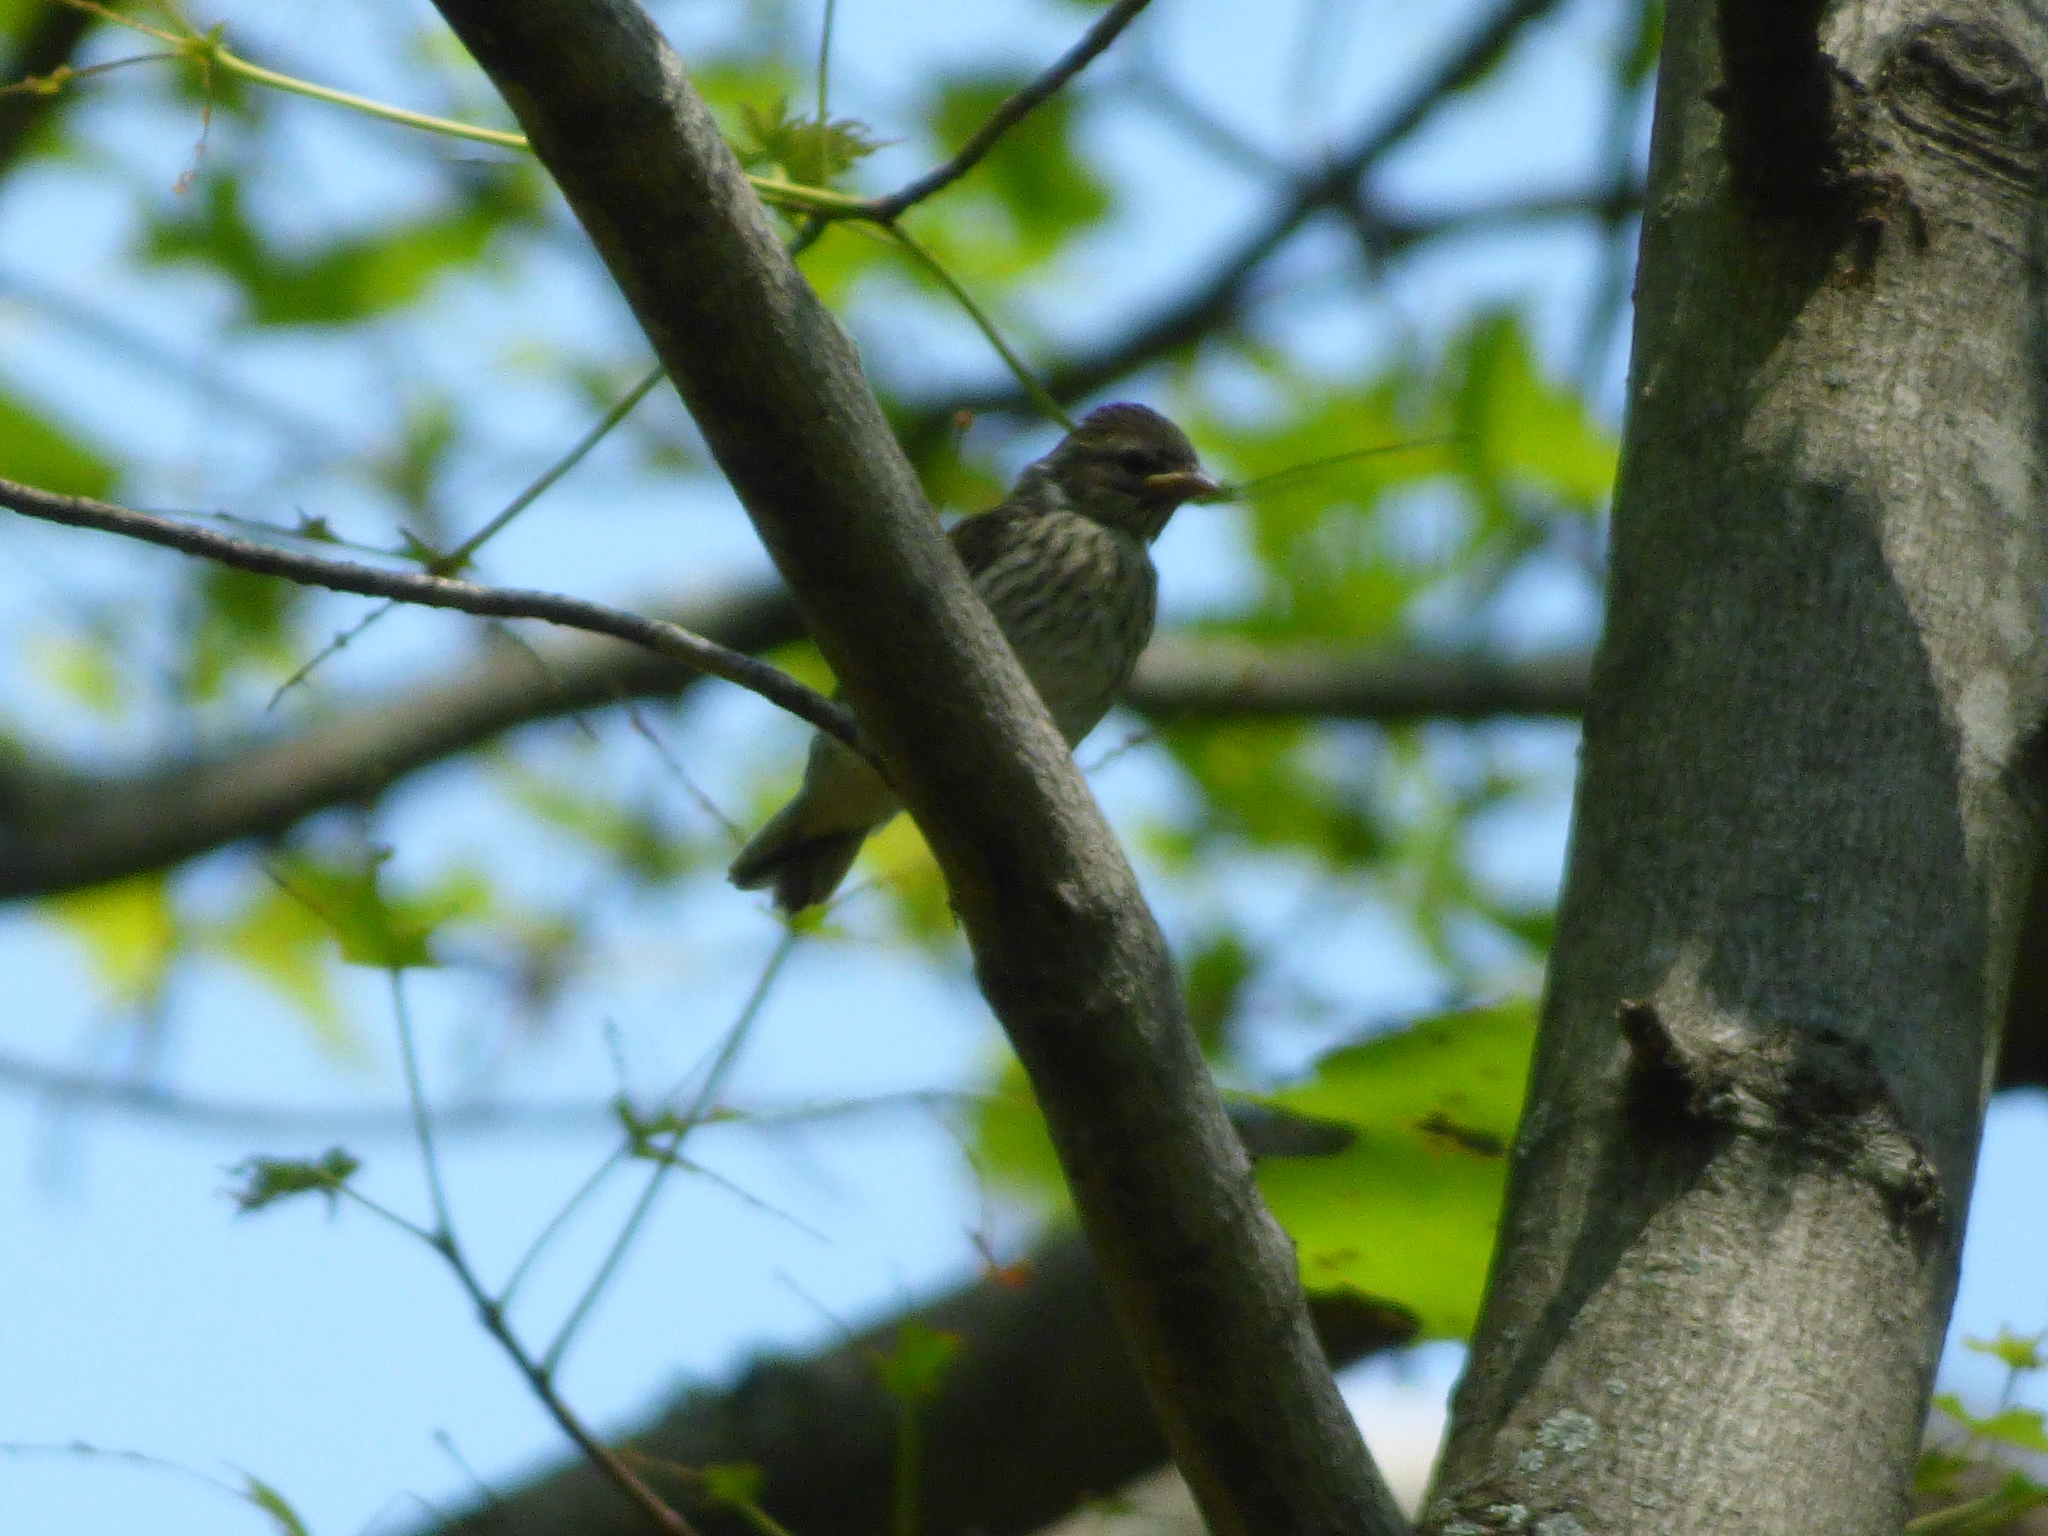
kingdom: Animalia
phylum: Chordata
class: Aves
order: Passeriformes
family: Passerellidae
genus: Spizella
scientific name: Spizella passerina
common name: Chipping sparrow
